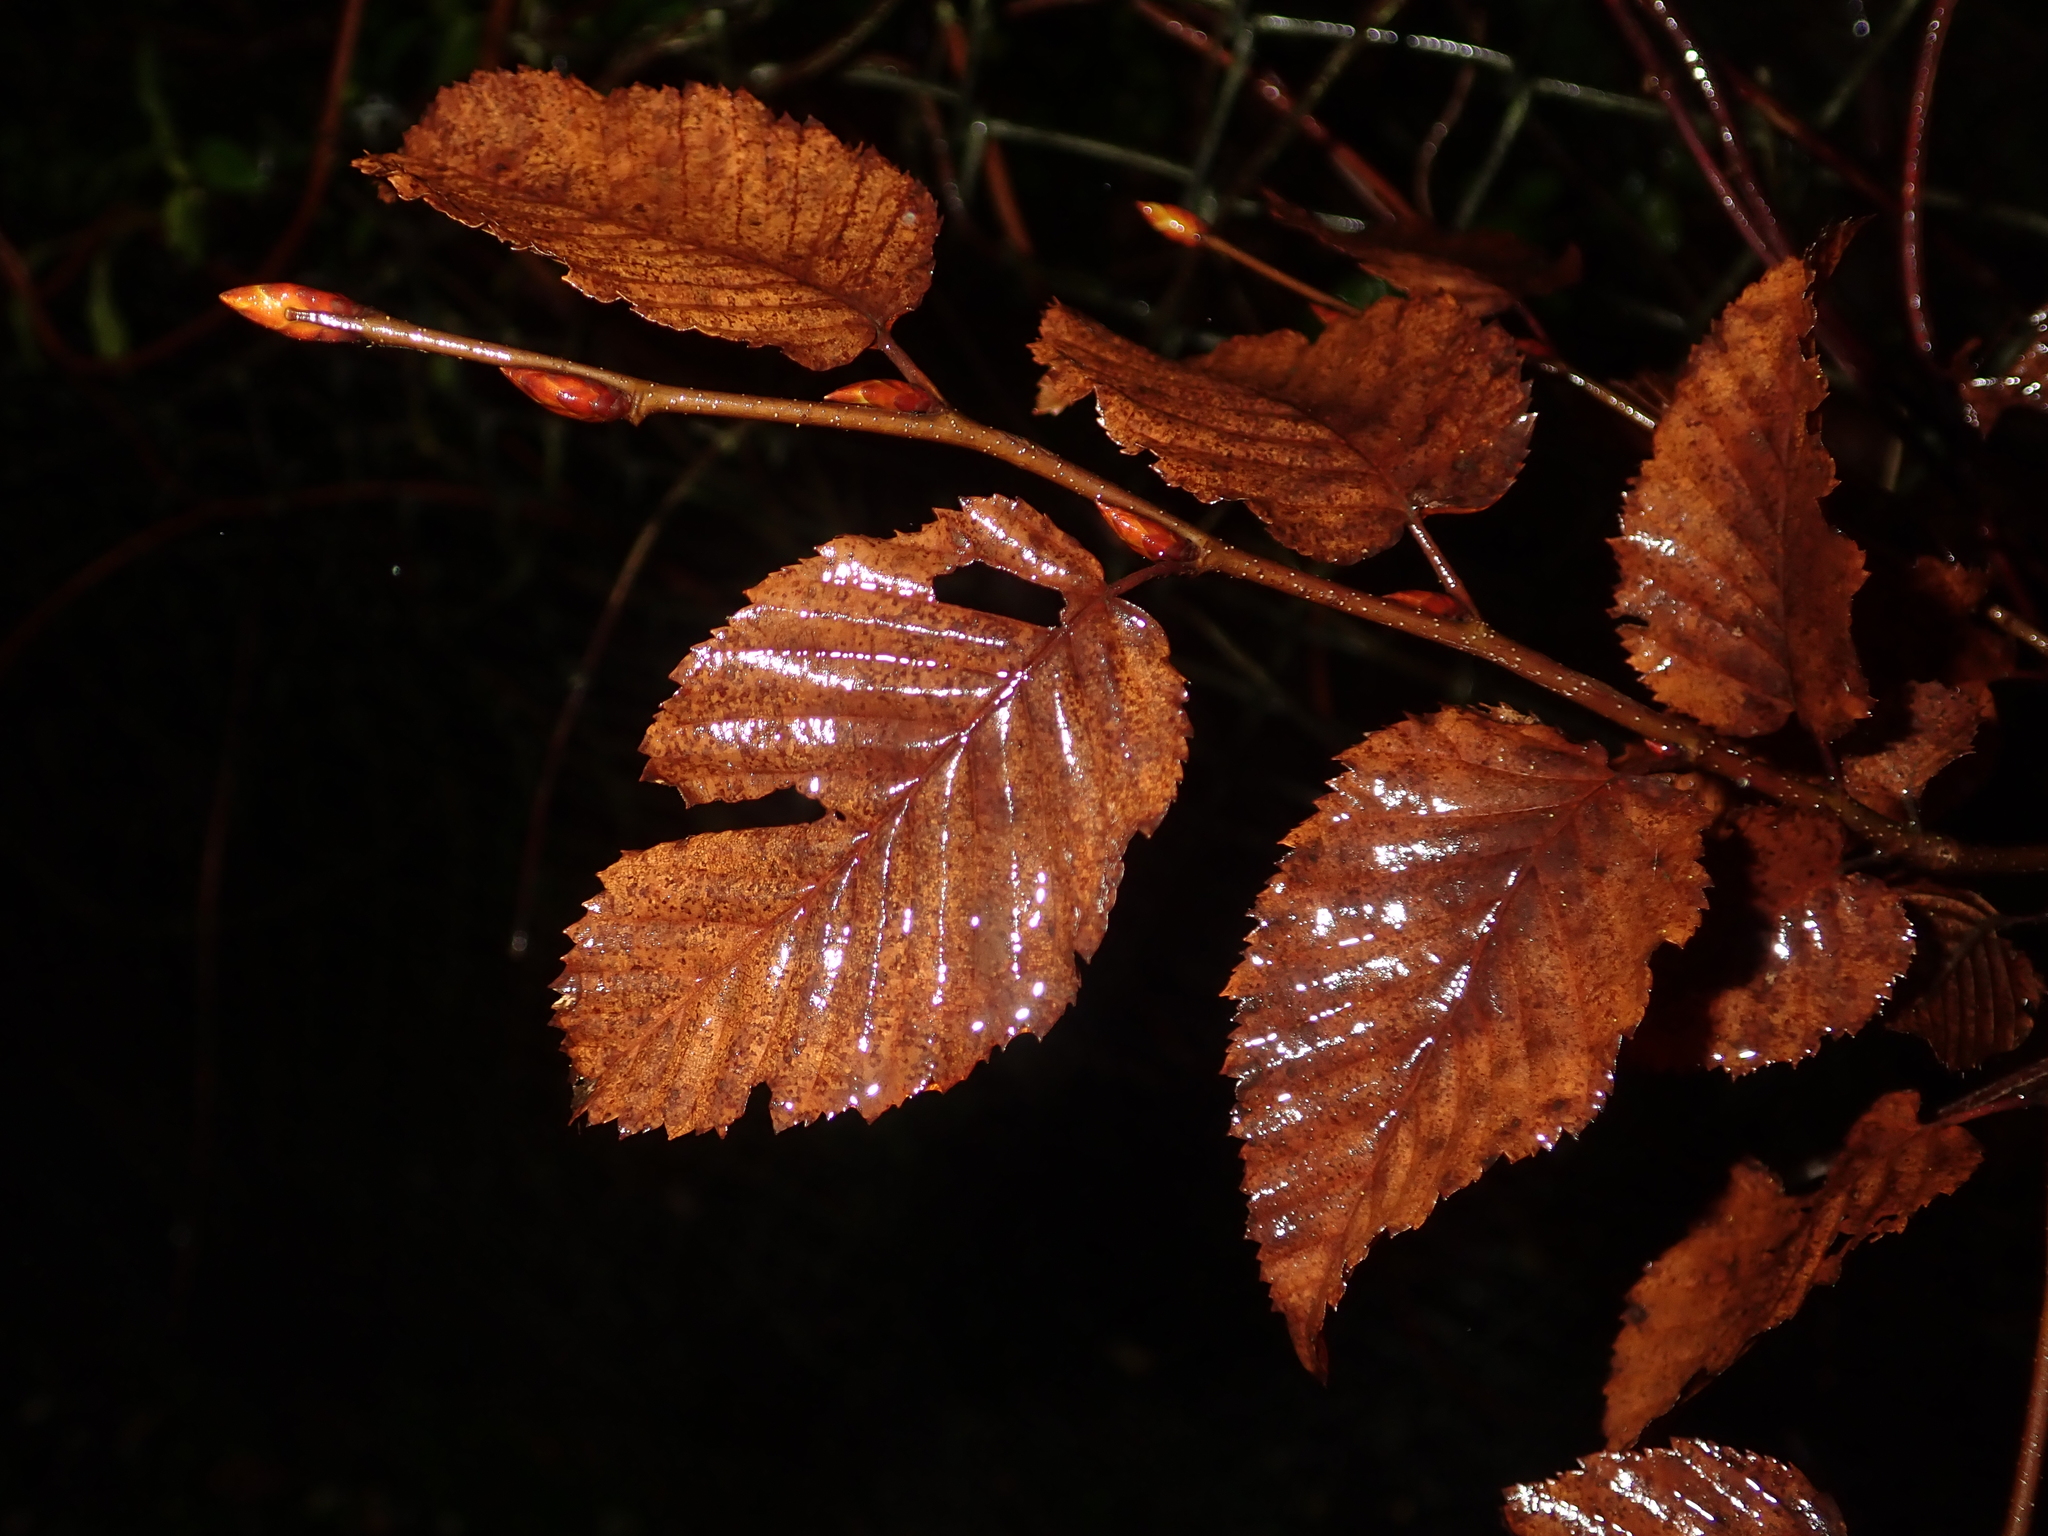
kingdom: Plantae
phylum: Tracheophyta
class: Magnoliopsida
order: Fagales
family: Betulaceae
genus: Carpinus
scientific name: Carpinus betulus
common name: Hornbeam
